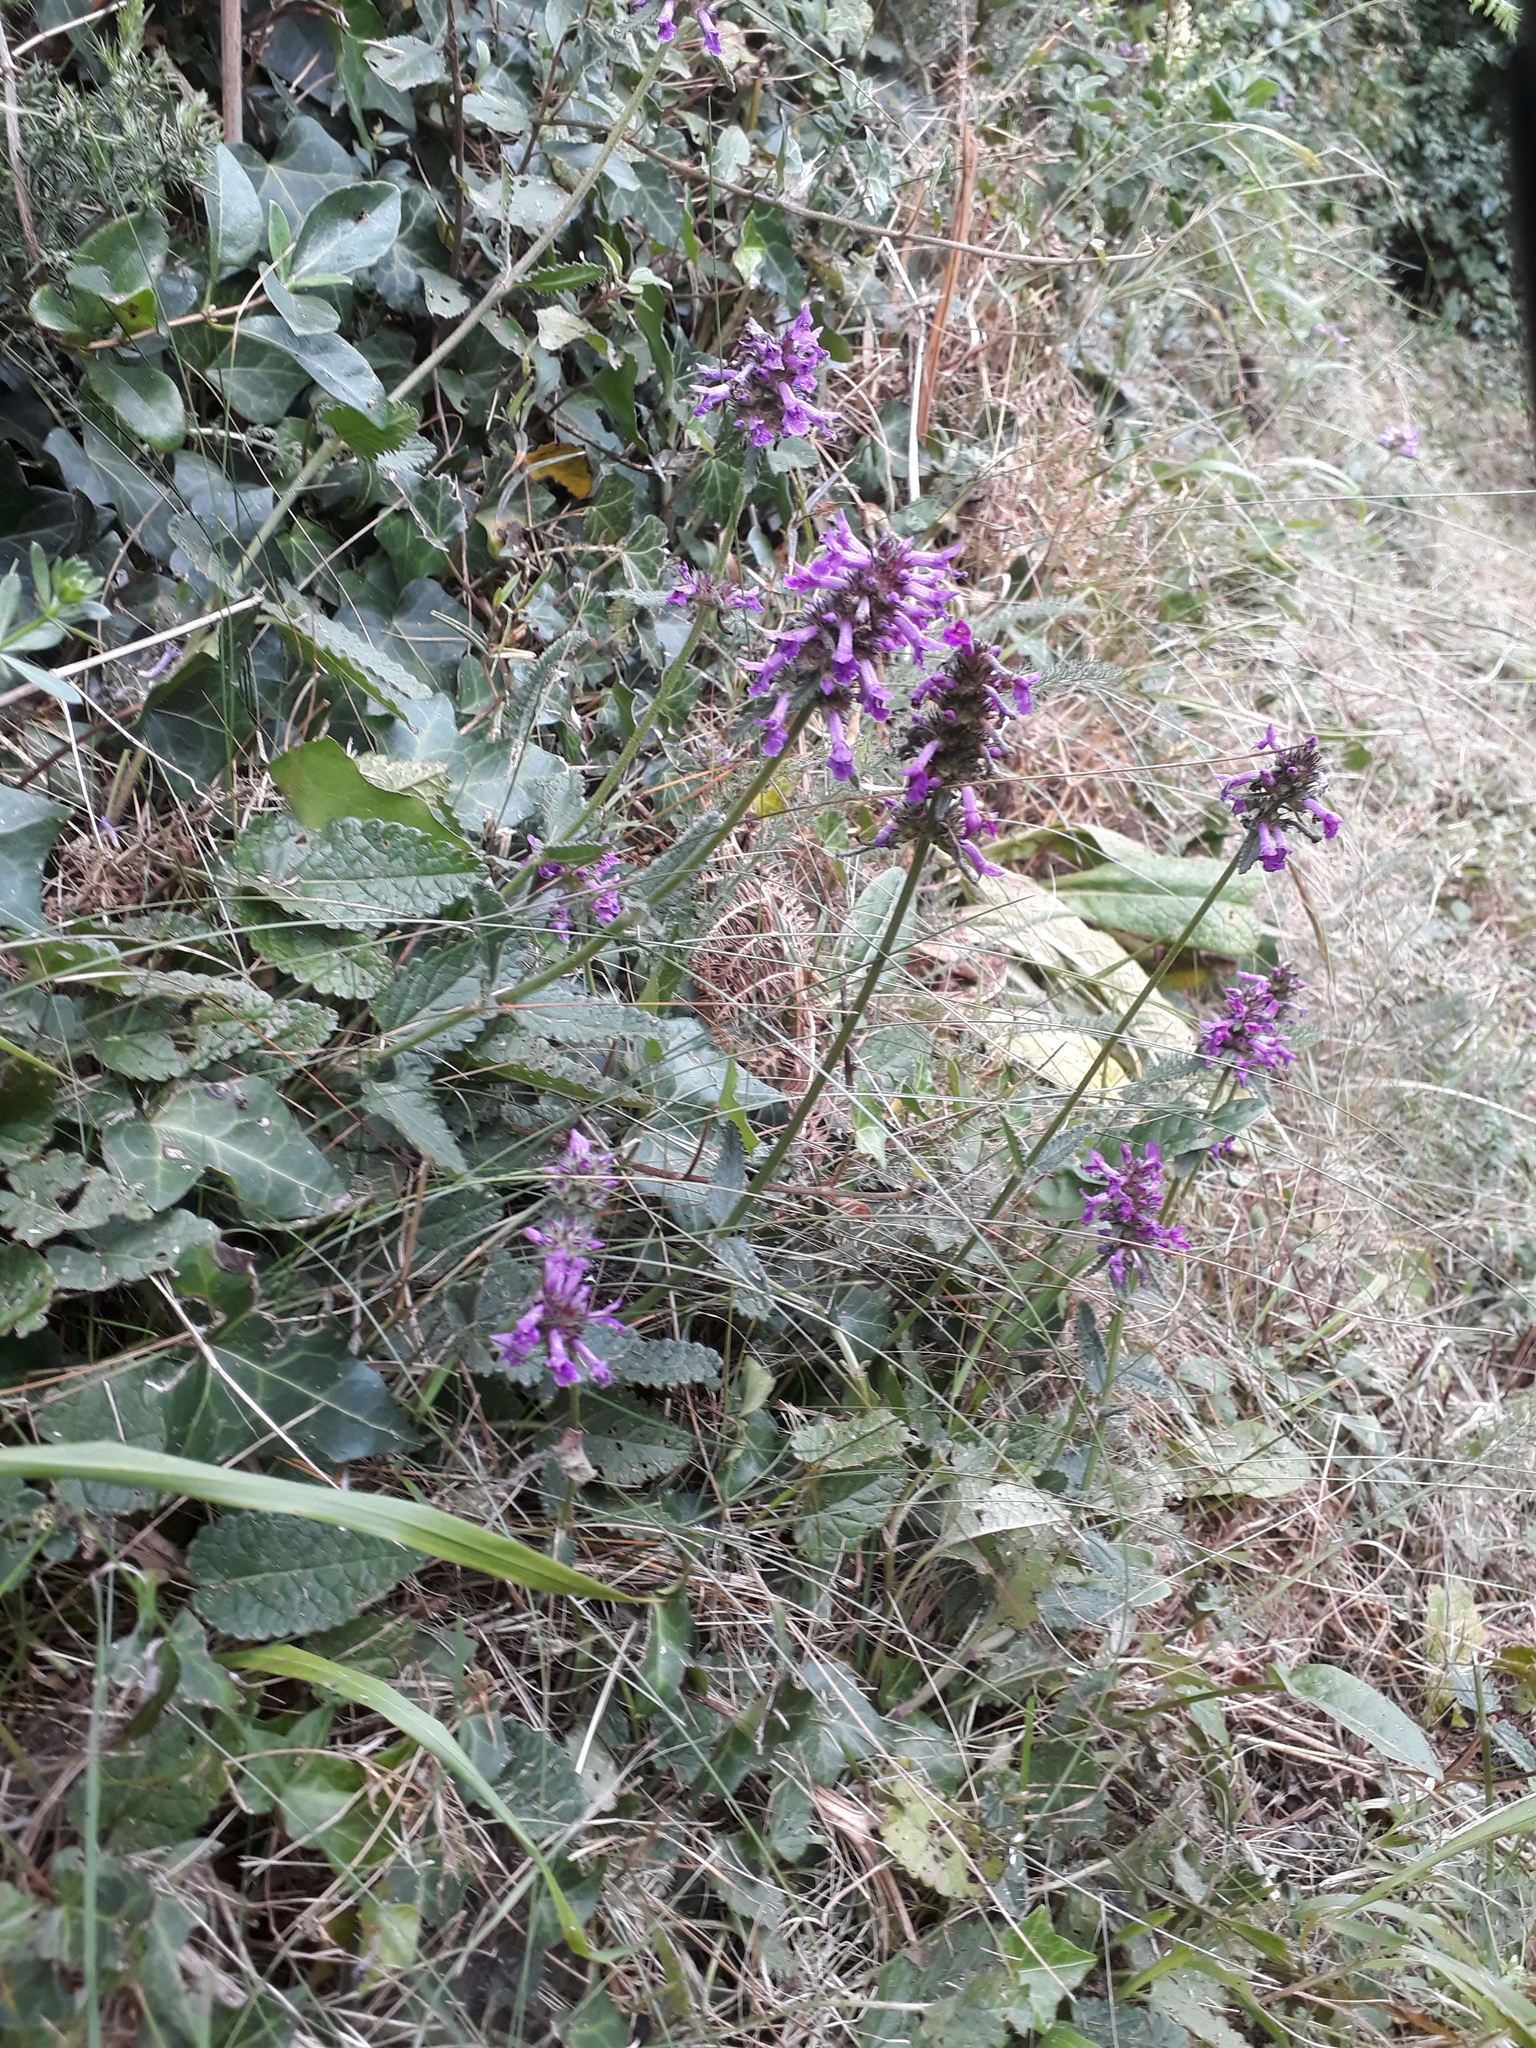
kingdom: Plantae
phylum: Tracheophyta
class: Magnoliopsida
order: Lamiales
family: Lamiaceae
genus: Betonica
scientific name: Betonica officinalis
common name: Bishop's-wort
